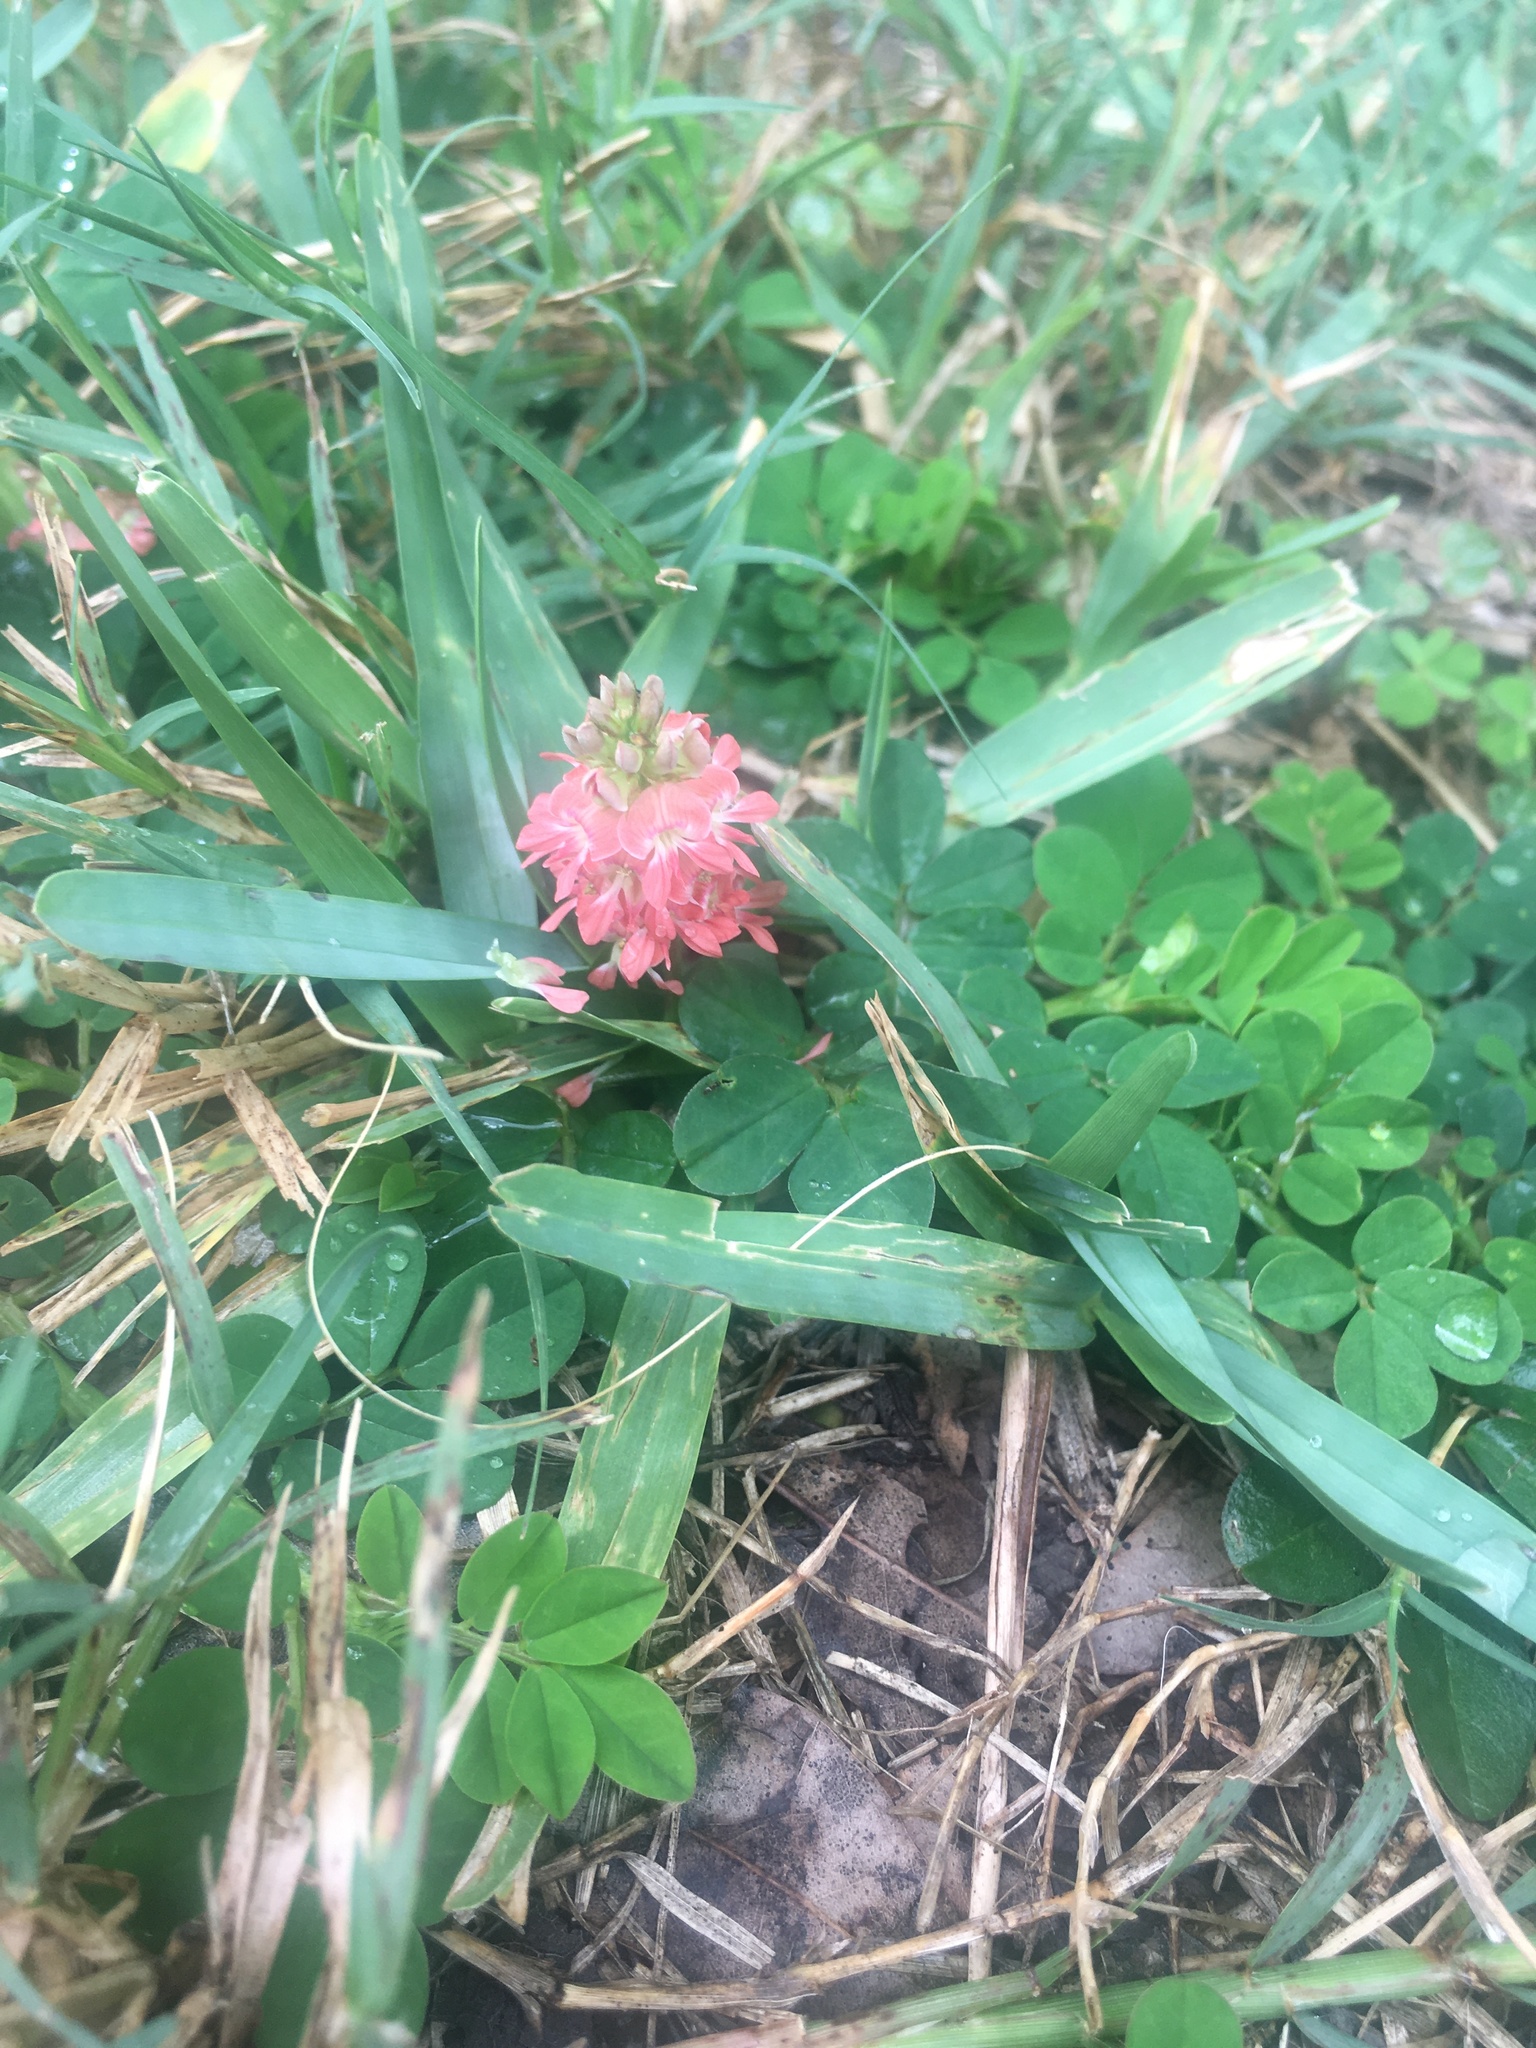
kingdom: Plantae
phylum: Tracheophyta
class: Magnoliopsida
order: Fabales
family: Fabaceae
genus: Indigofera
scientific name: Indigofera spicata
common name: Creeping indigo
